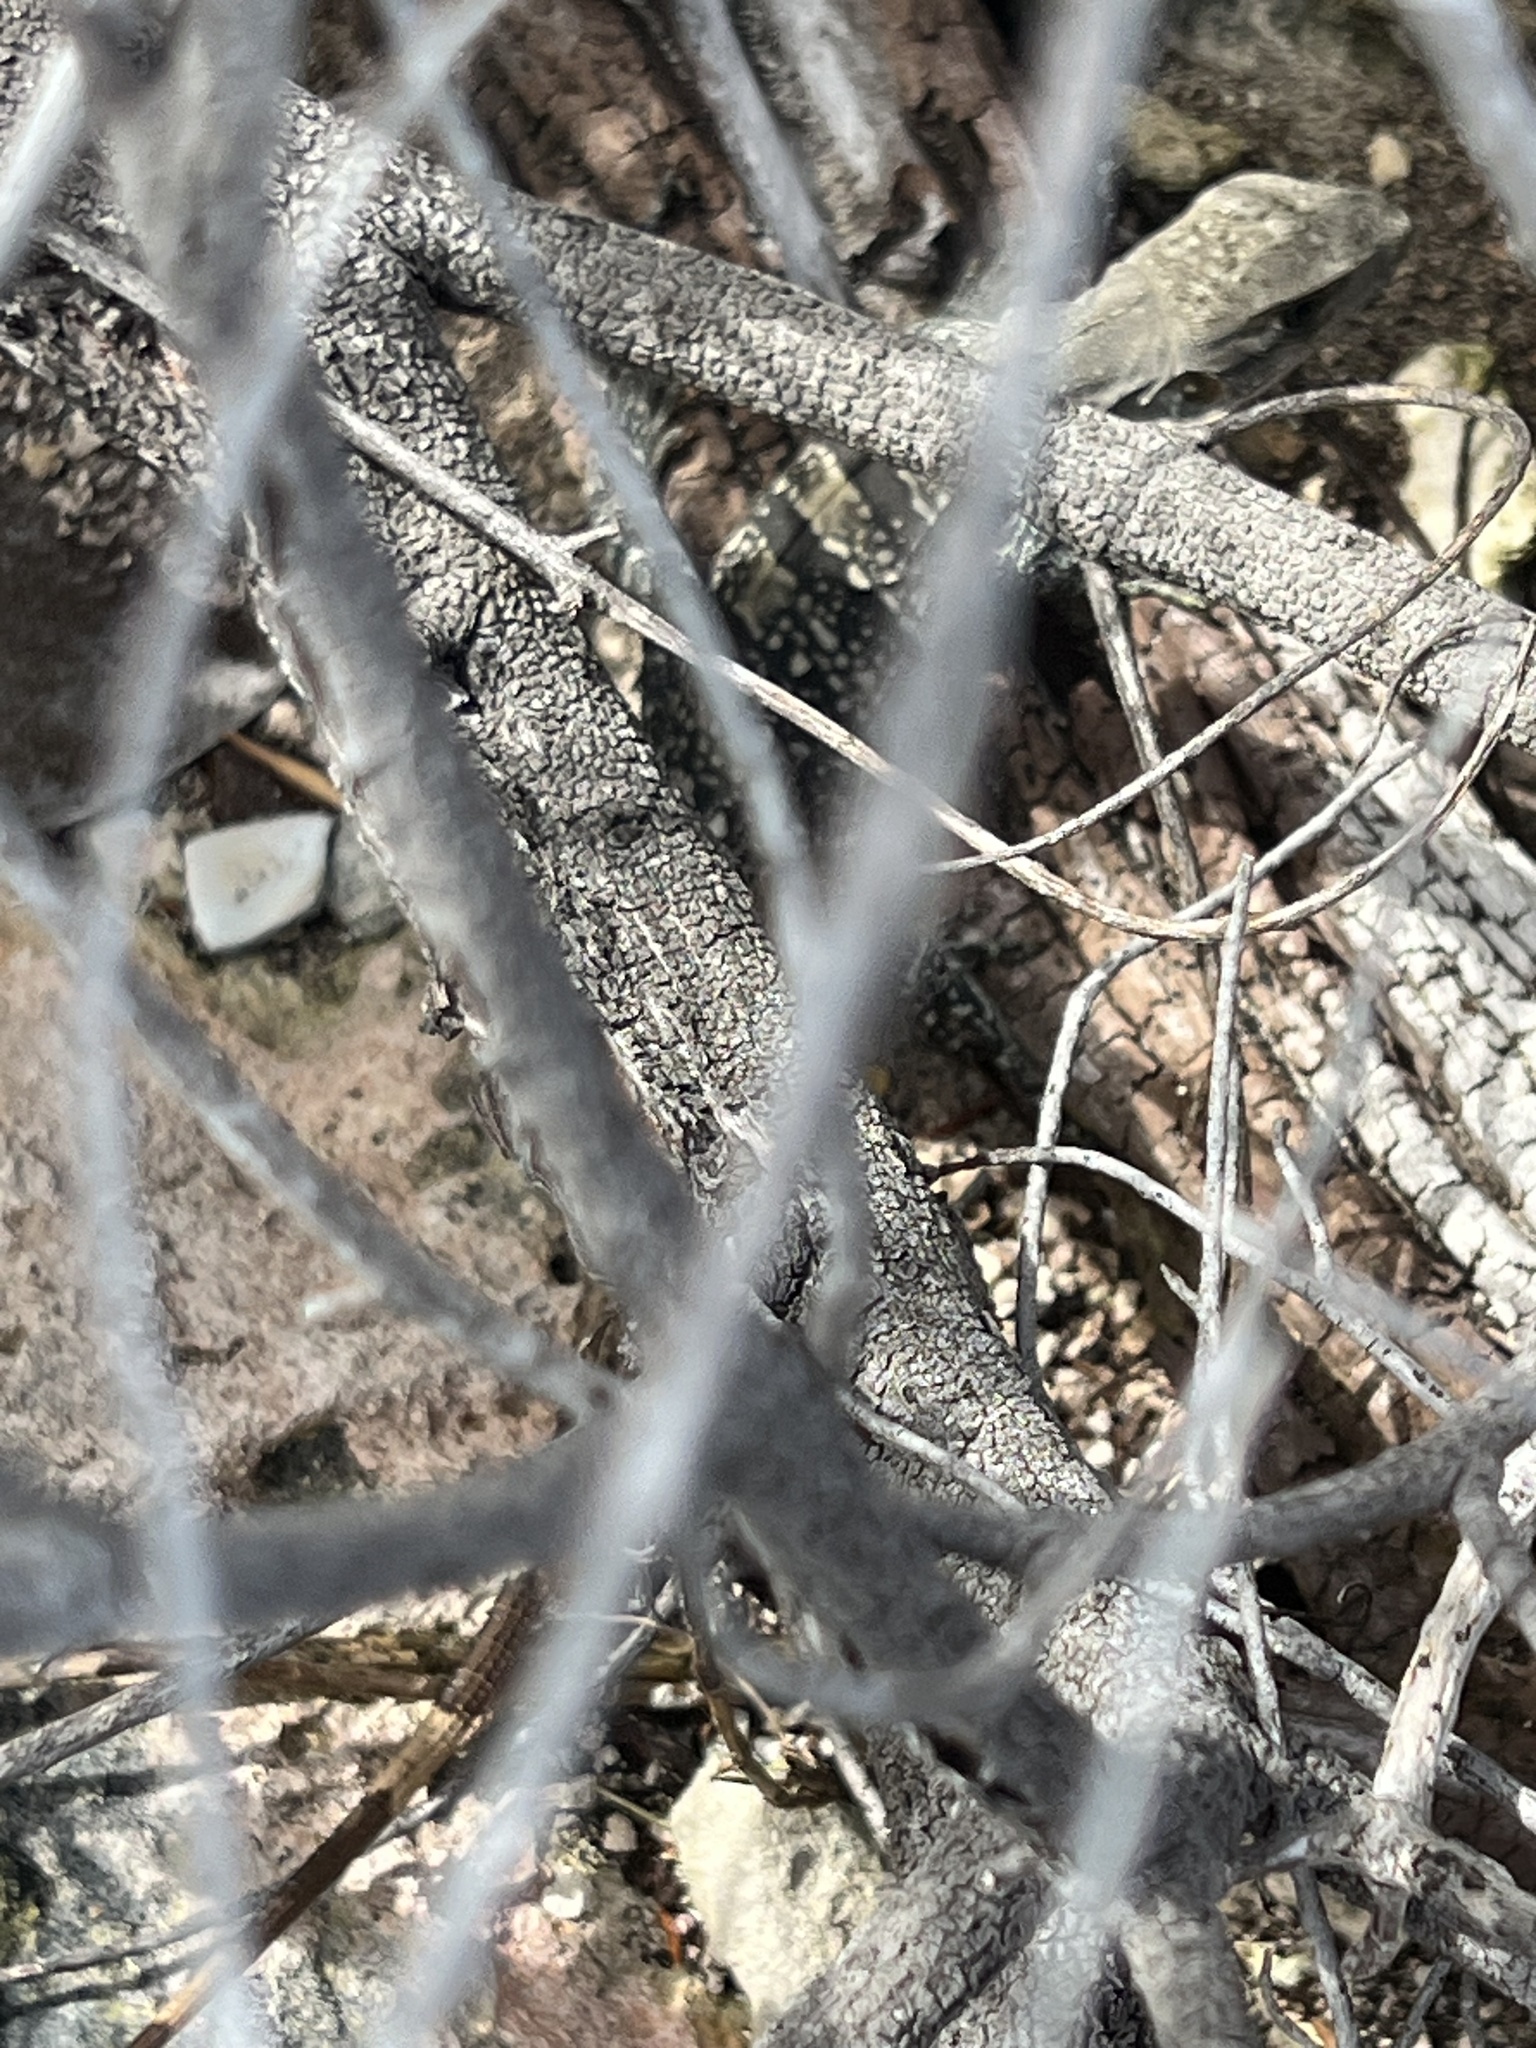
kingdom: Animalia
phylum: Chordata
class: Squamata
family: Iguanidae
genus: Ctenosaura
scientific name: Ctenosaura similis
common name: Black spiny-tailed iguana
